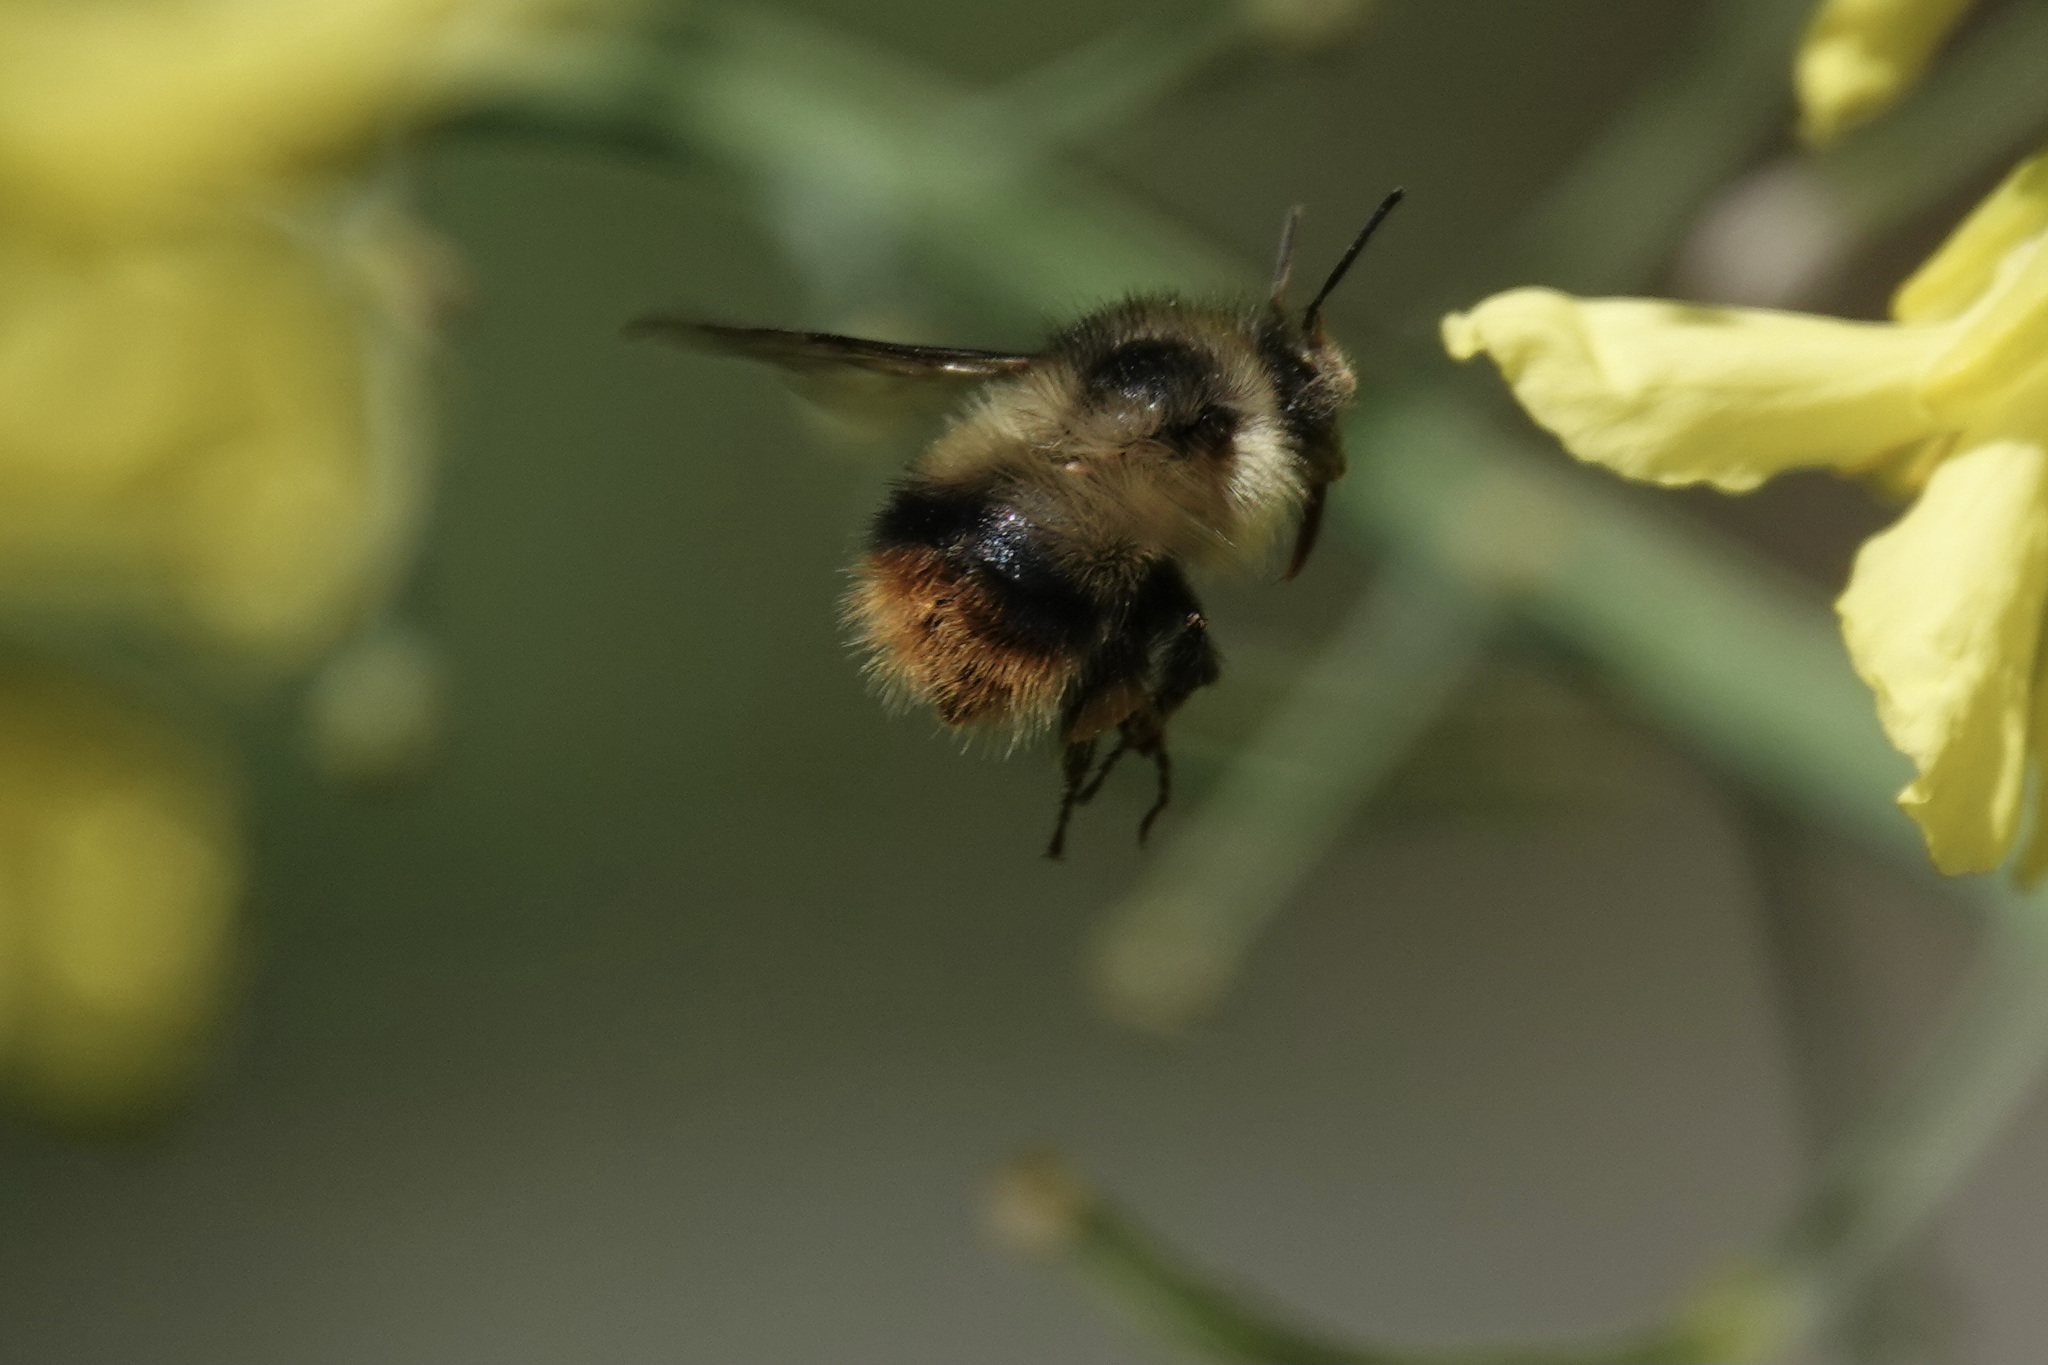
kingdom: Animalia
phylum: Arthropoda
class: Insecta
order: Hymenoptera
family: Apidae
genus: Bombus
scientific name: Bombus mixtus
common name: Fuzzy-horned bumble bee
